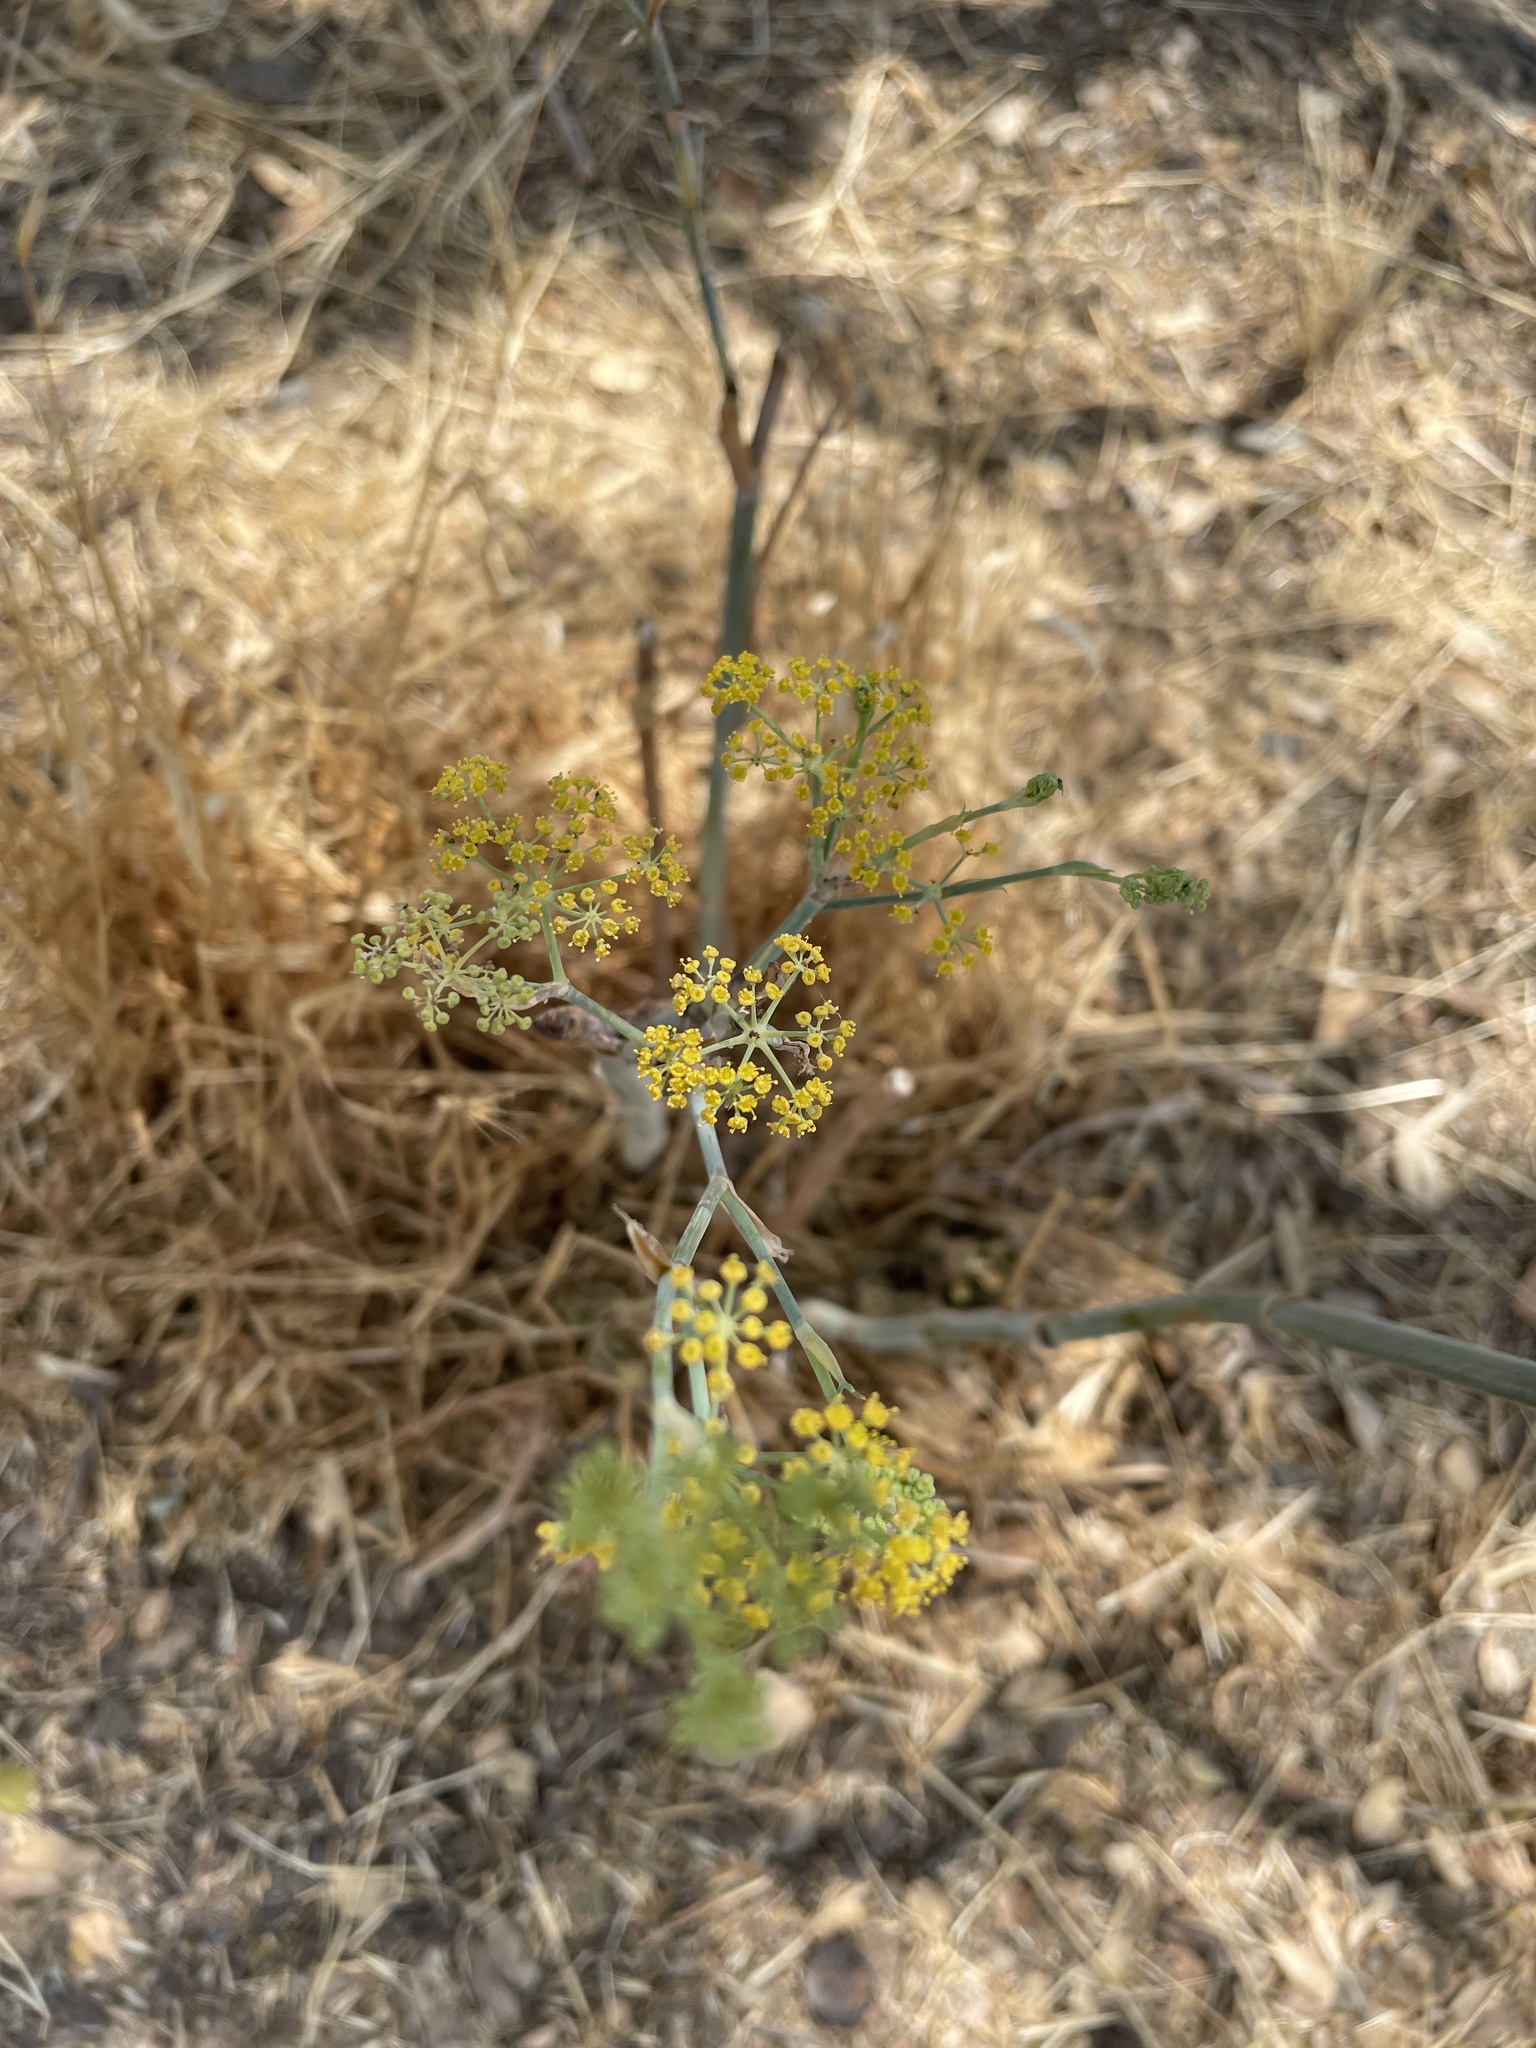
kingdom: Plantae
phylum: Tracheophyta
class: Magnoliopsida
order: Apiales
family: Apiaceae
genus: Foeniculum
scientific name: Foeniculum vulgare
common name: Fennel
